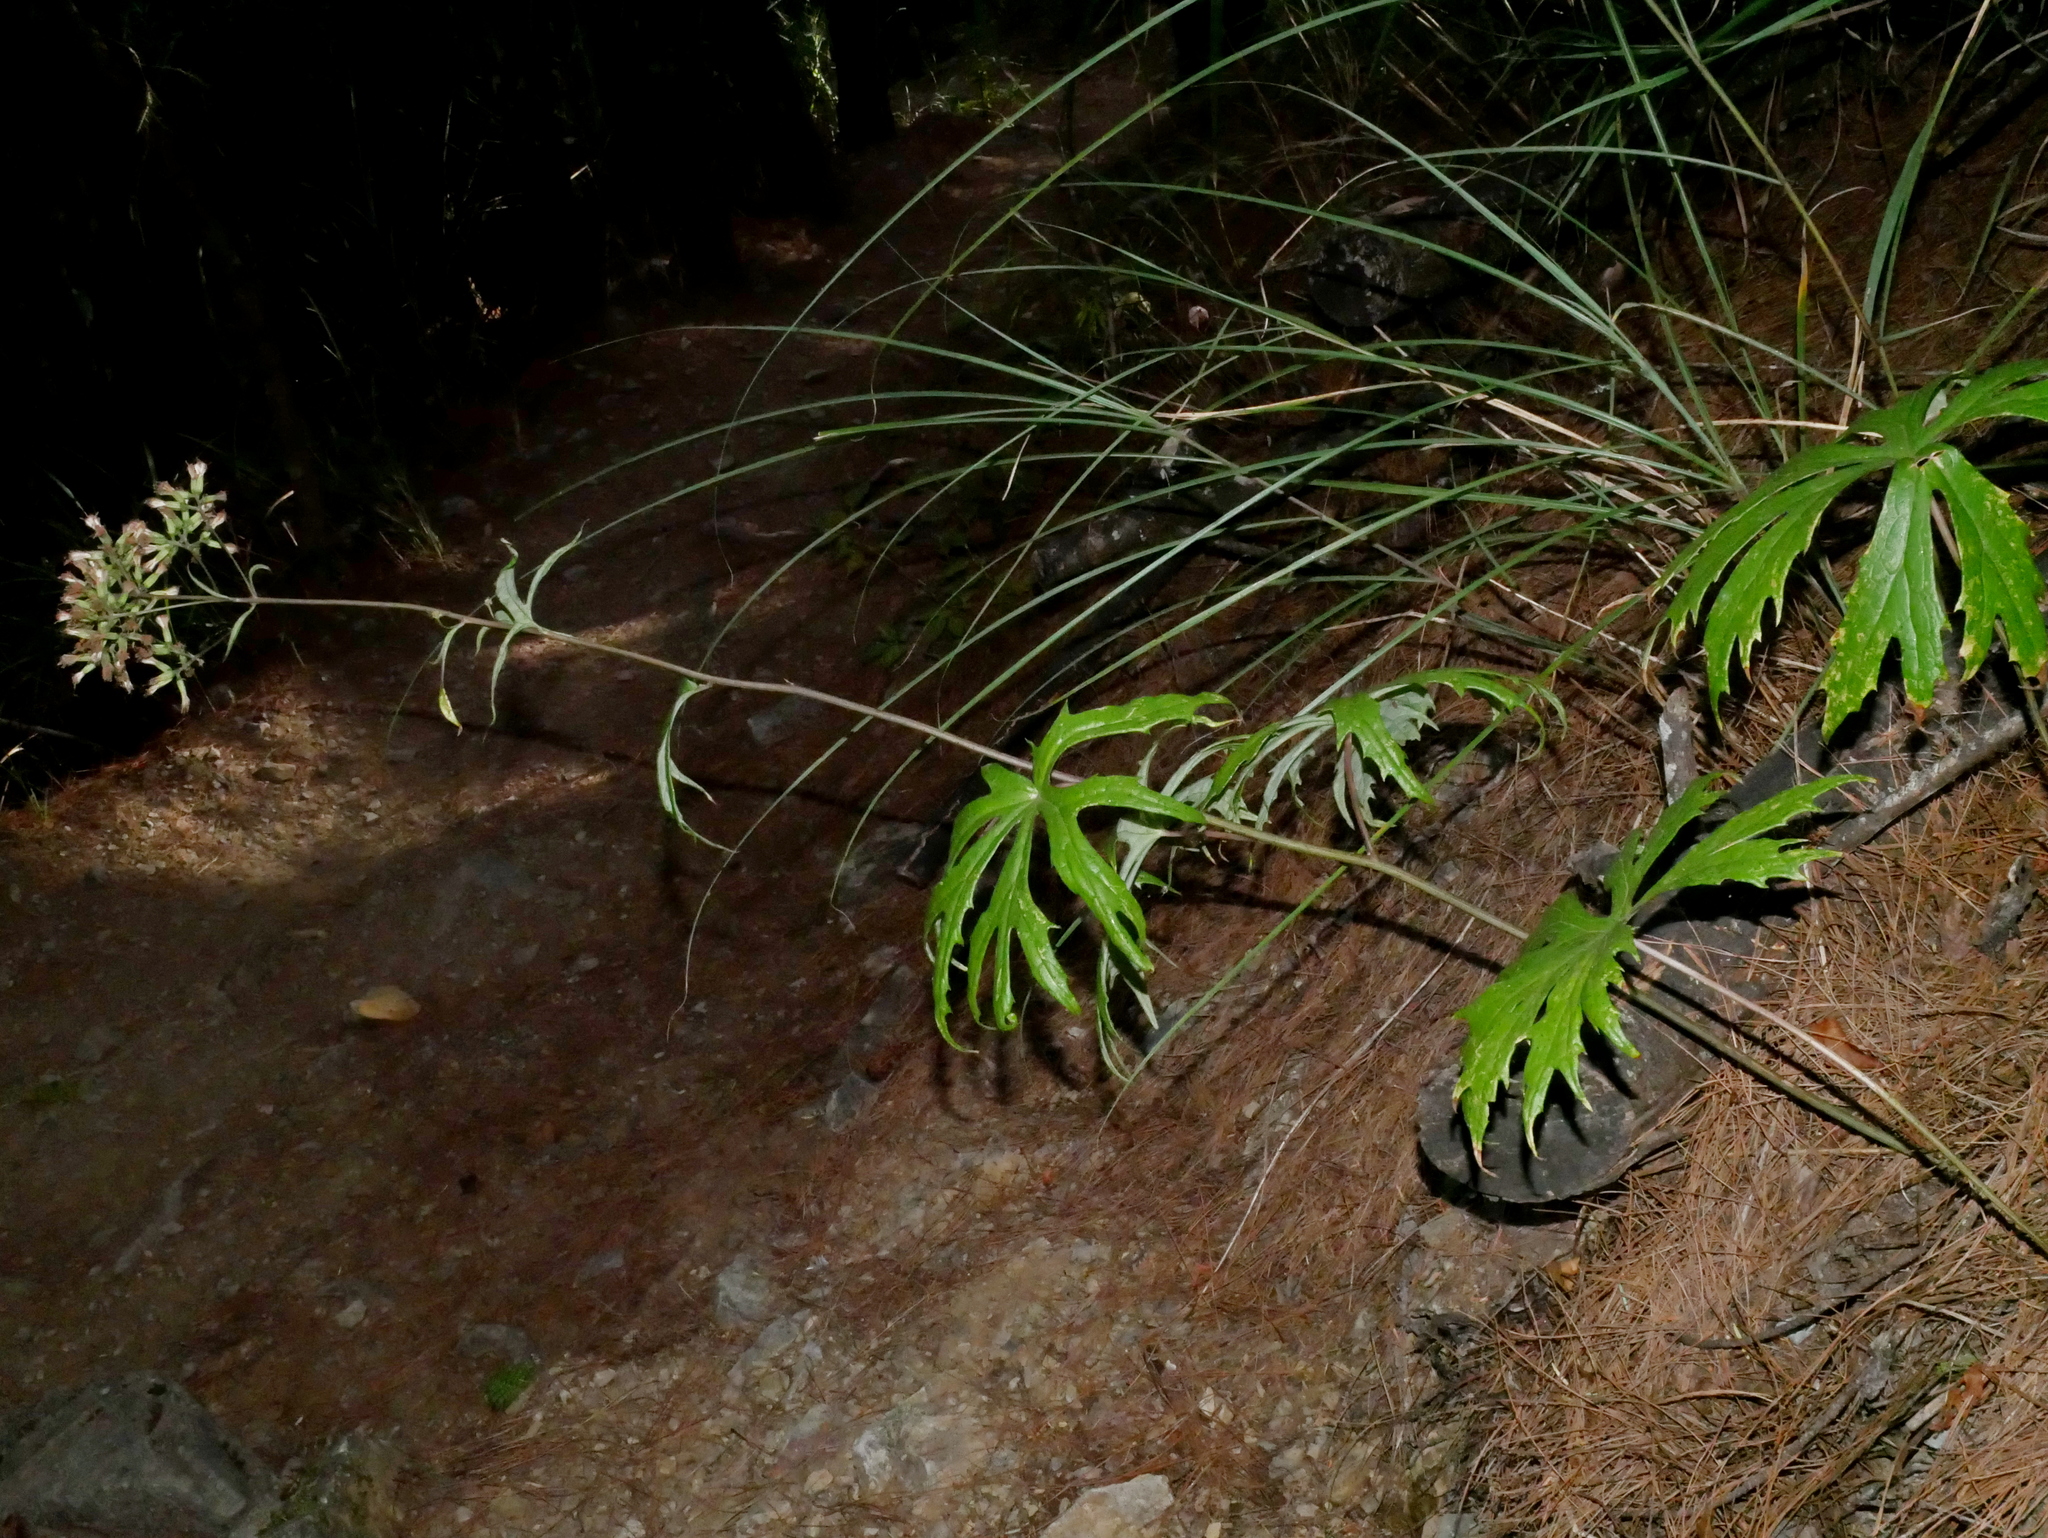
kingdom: Plantae
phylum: Tracheophyta
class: Magnoliopsida
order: Asterales
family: Asteraceae
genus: Syneilesis
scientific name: Syneilesis subglabrata
